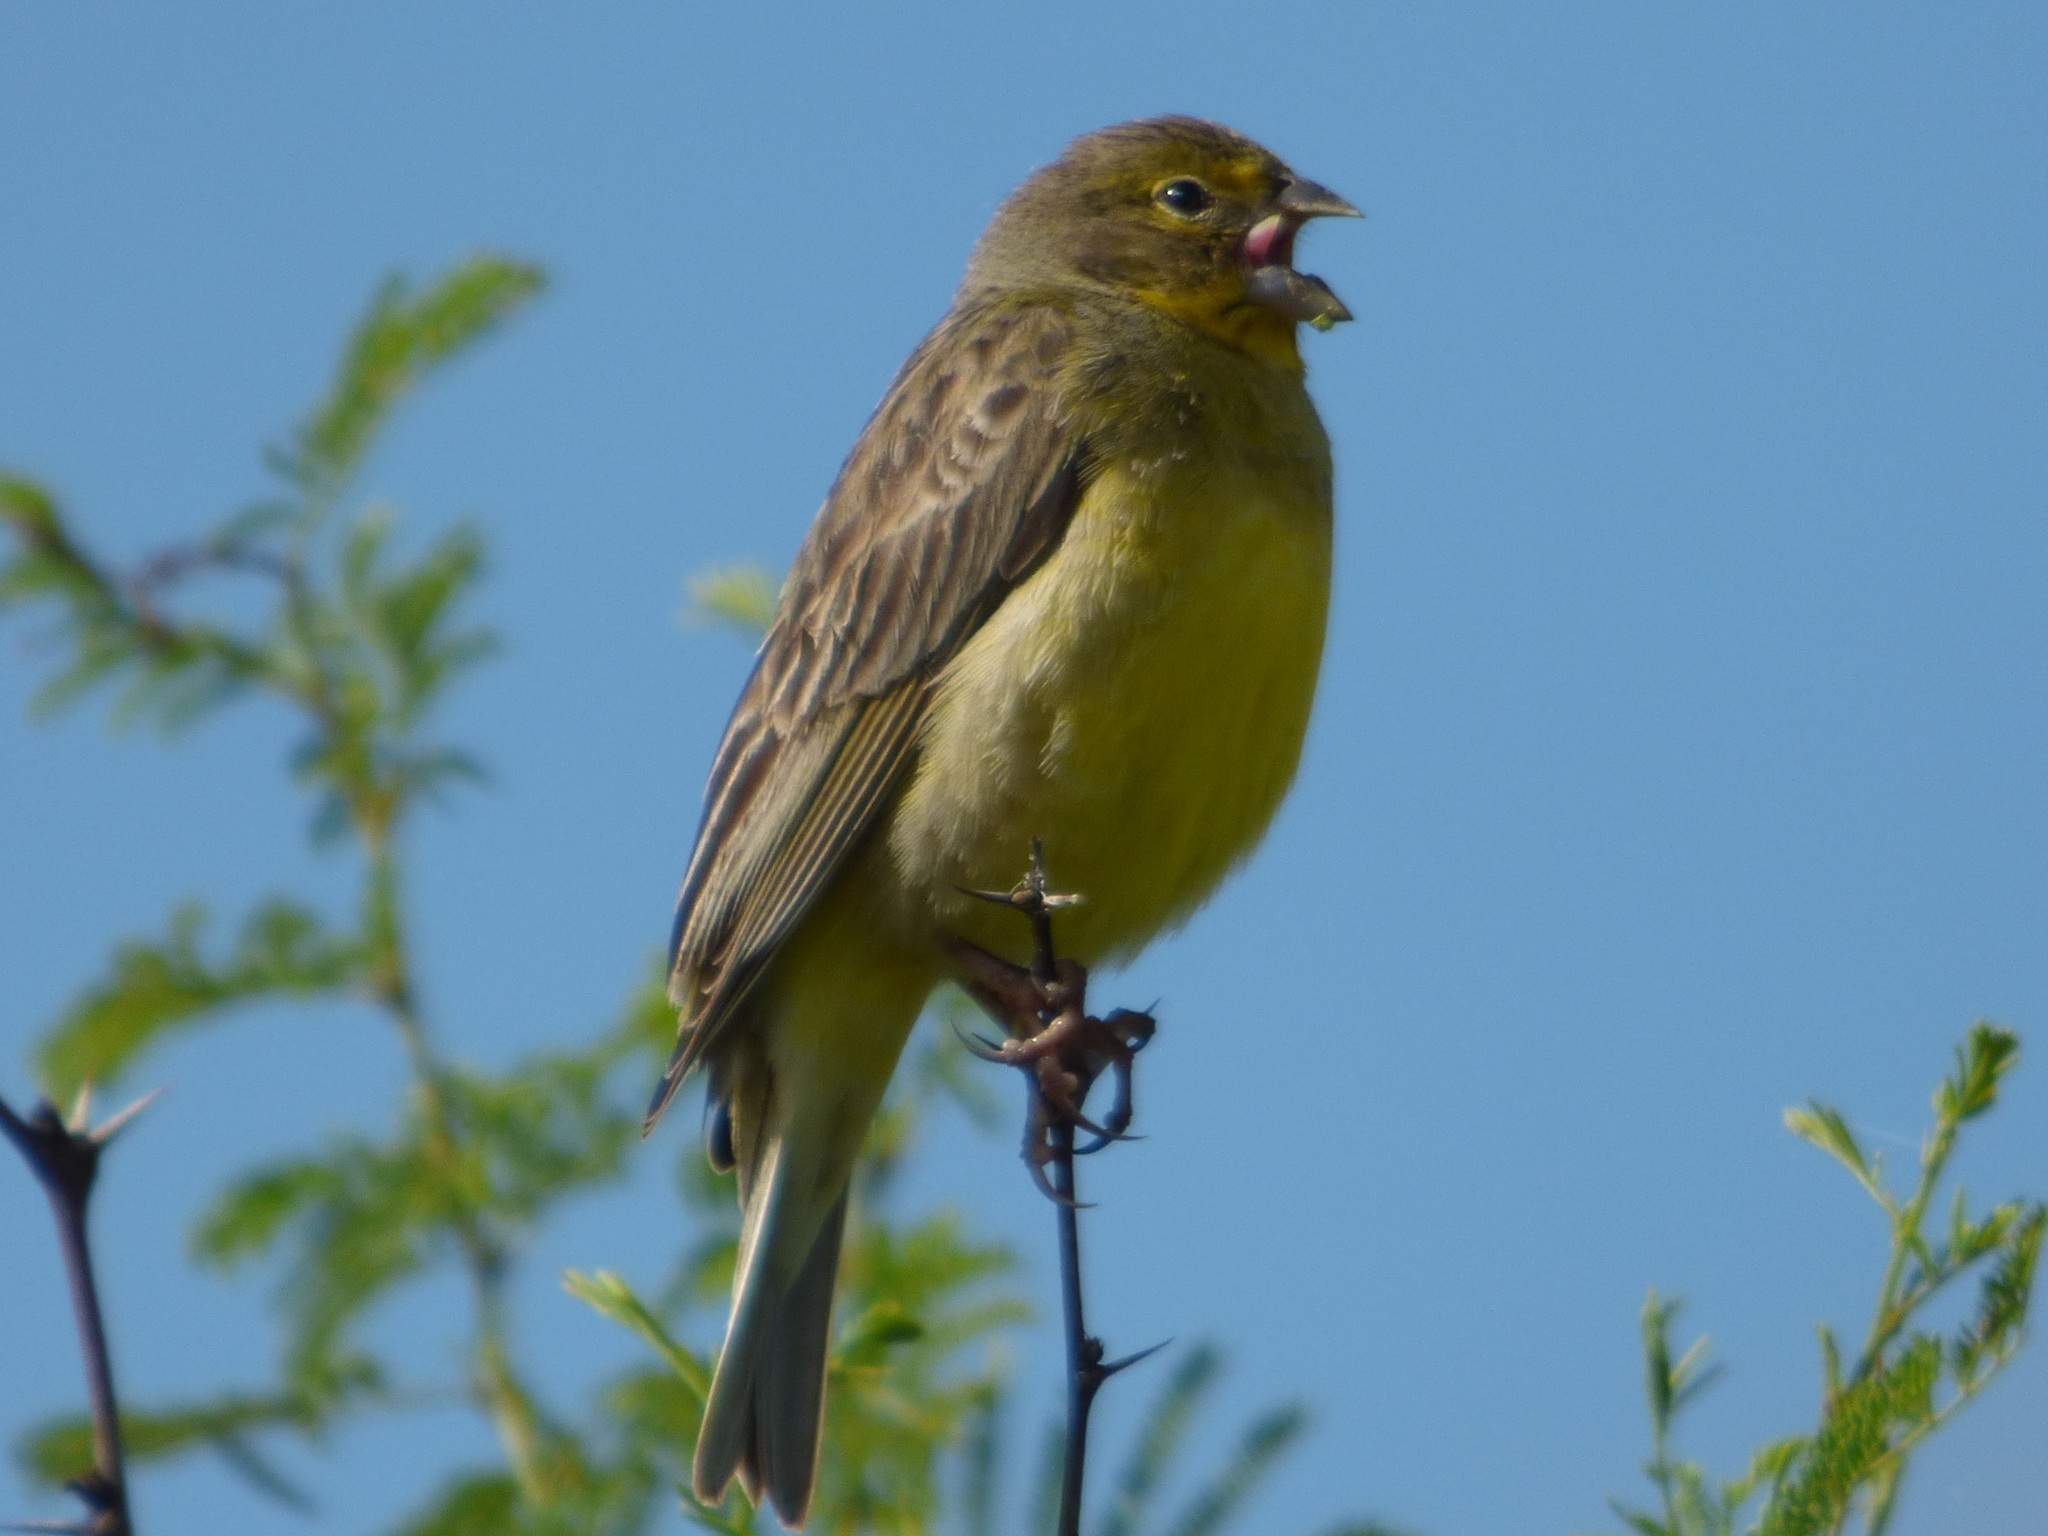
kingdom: Animalia
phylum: Chordata
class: Aves
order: Passeriformes
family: Thraupidae
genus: Sicalis
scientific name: Sicalis luteola
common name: Grassland yellow-finch
